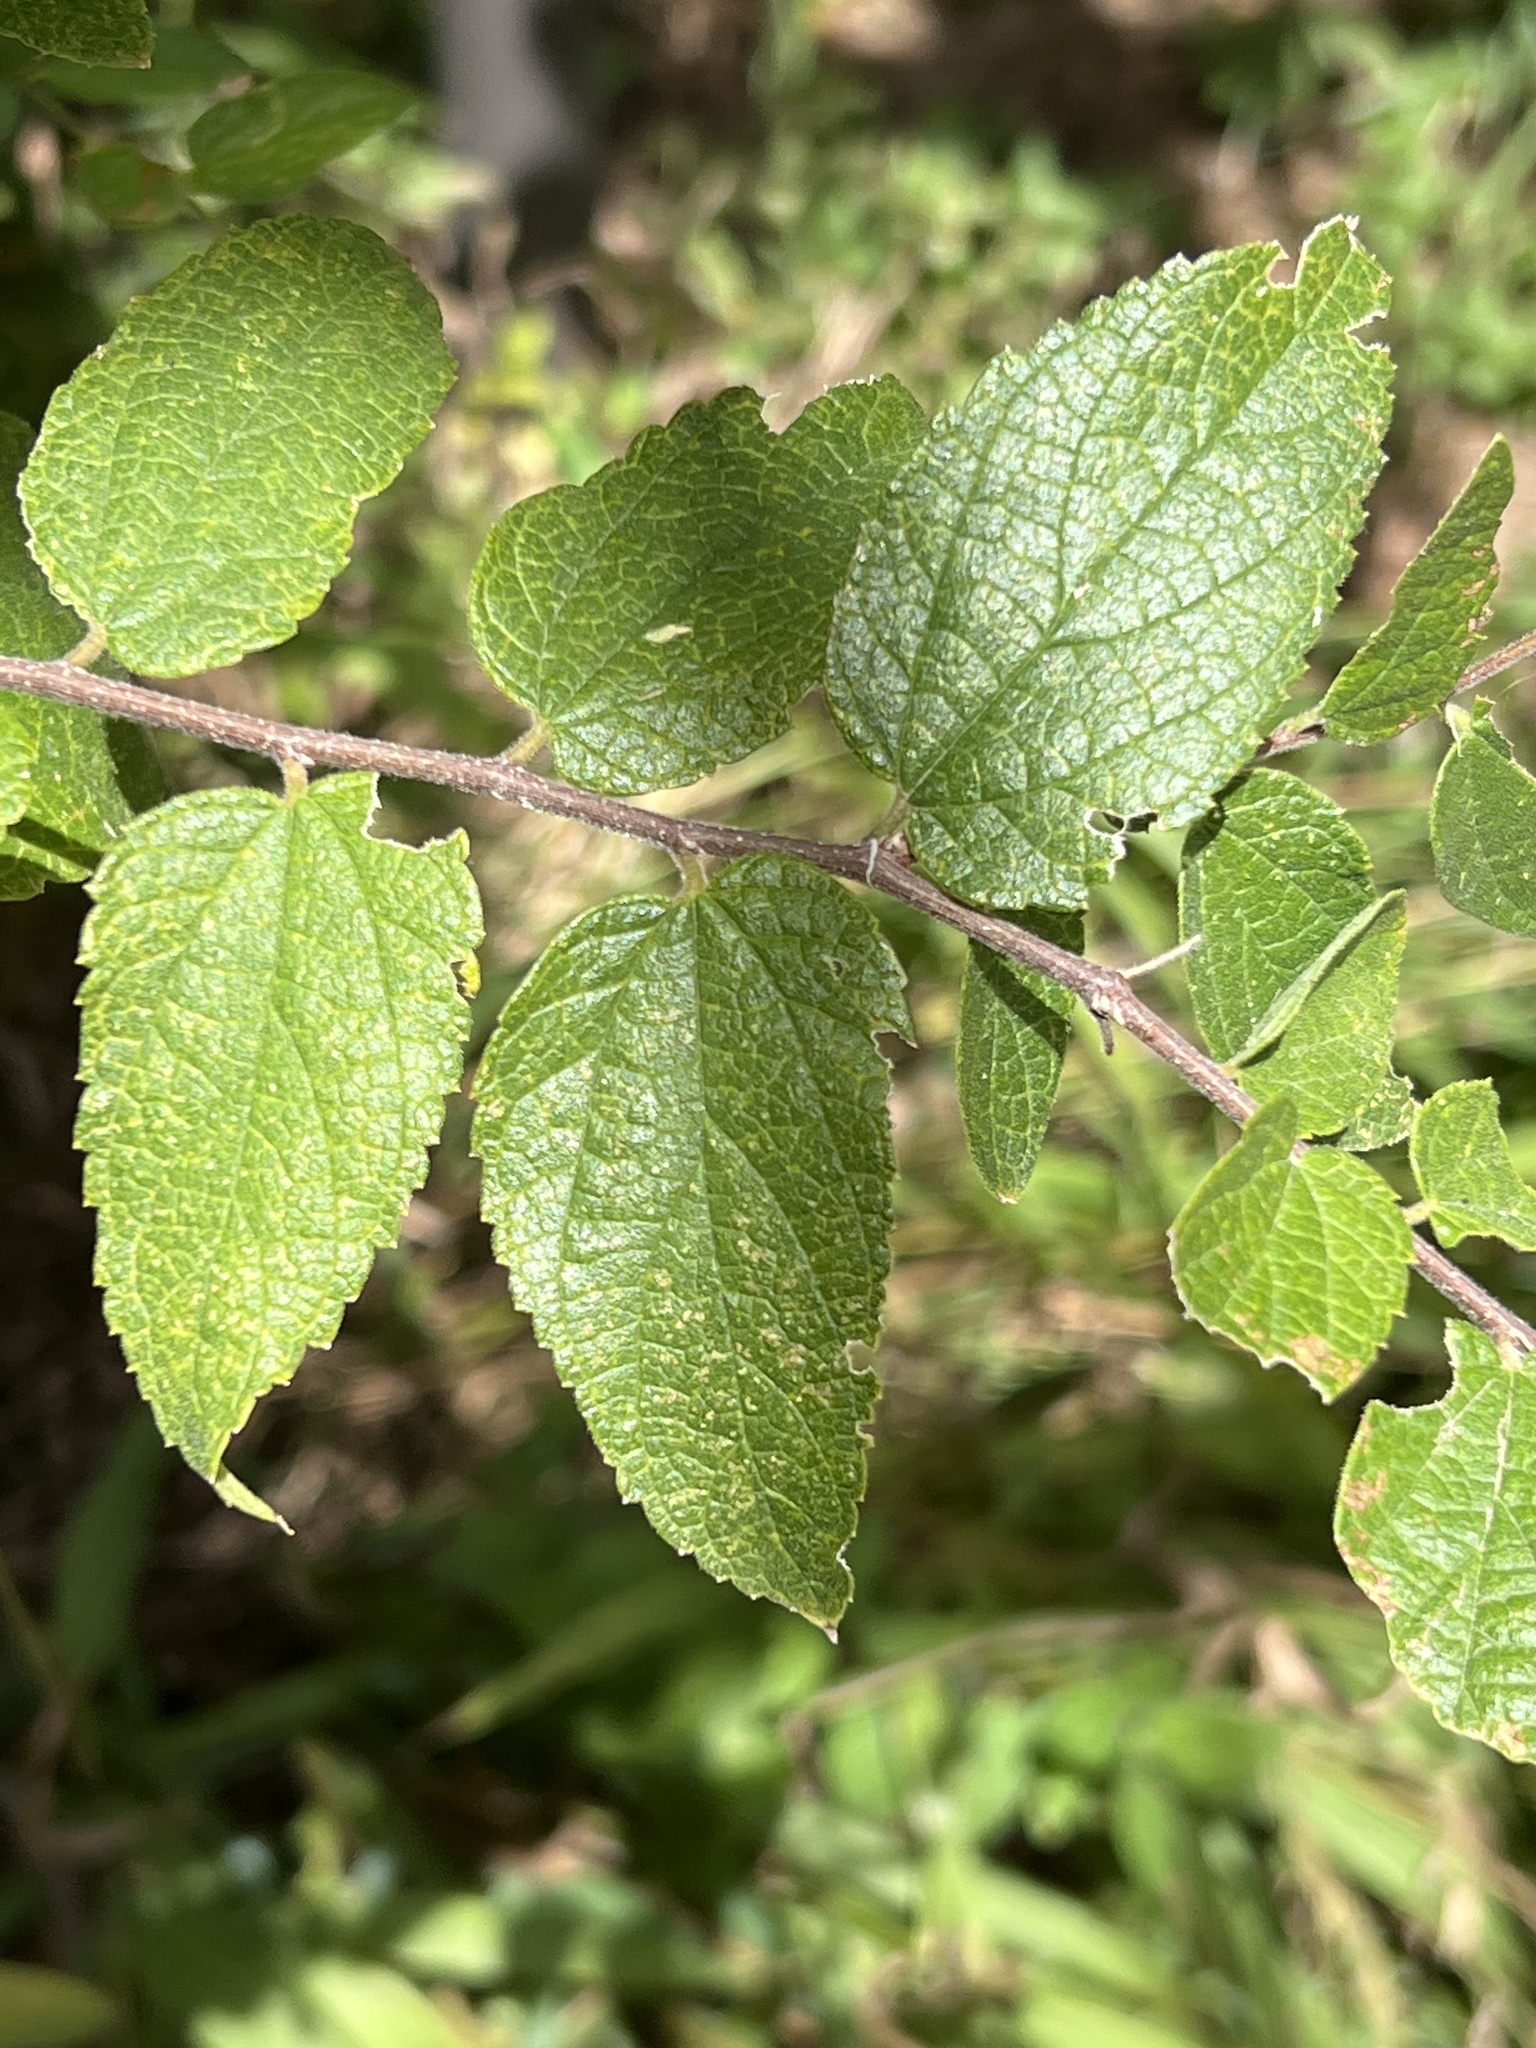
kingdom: Plantae
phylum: Tracheophyta
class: Magnoliopsida
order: Rosales
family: Cannabaceae
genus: Celtis
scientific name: Celtis reticulata
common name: Netleaf hackberry
